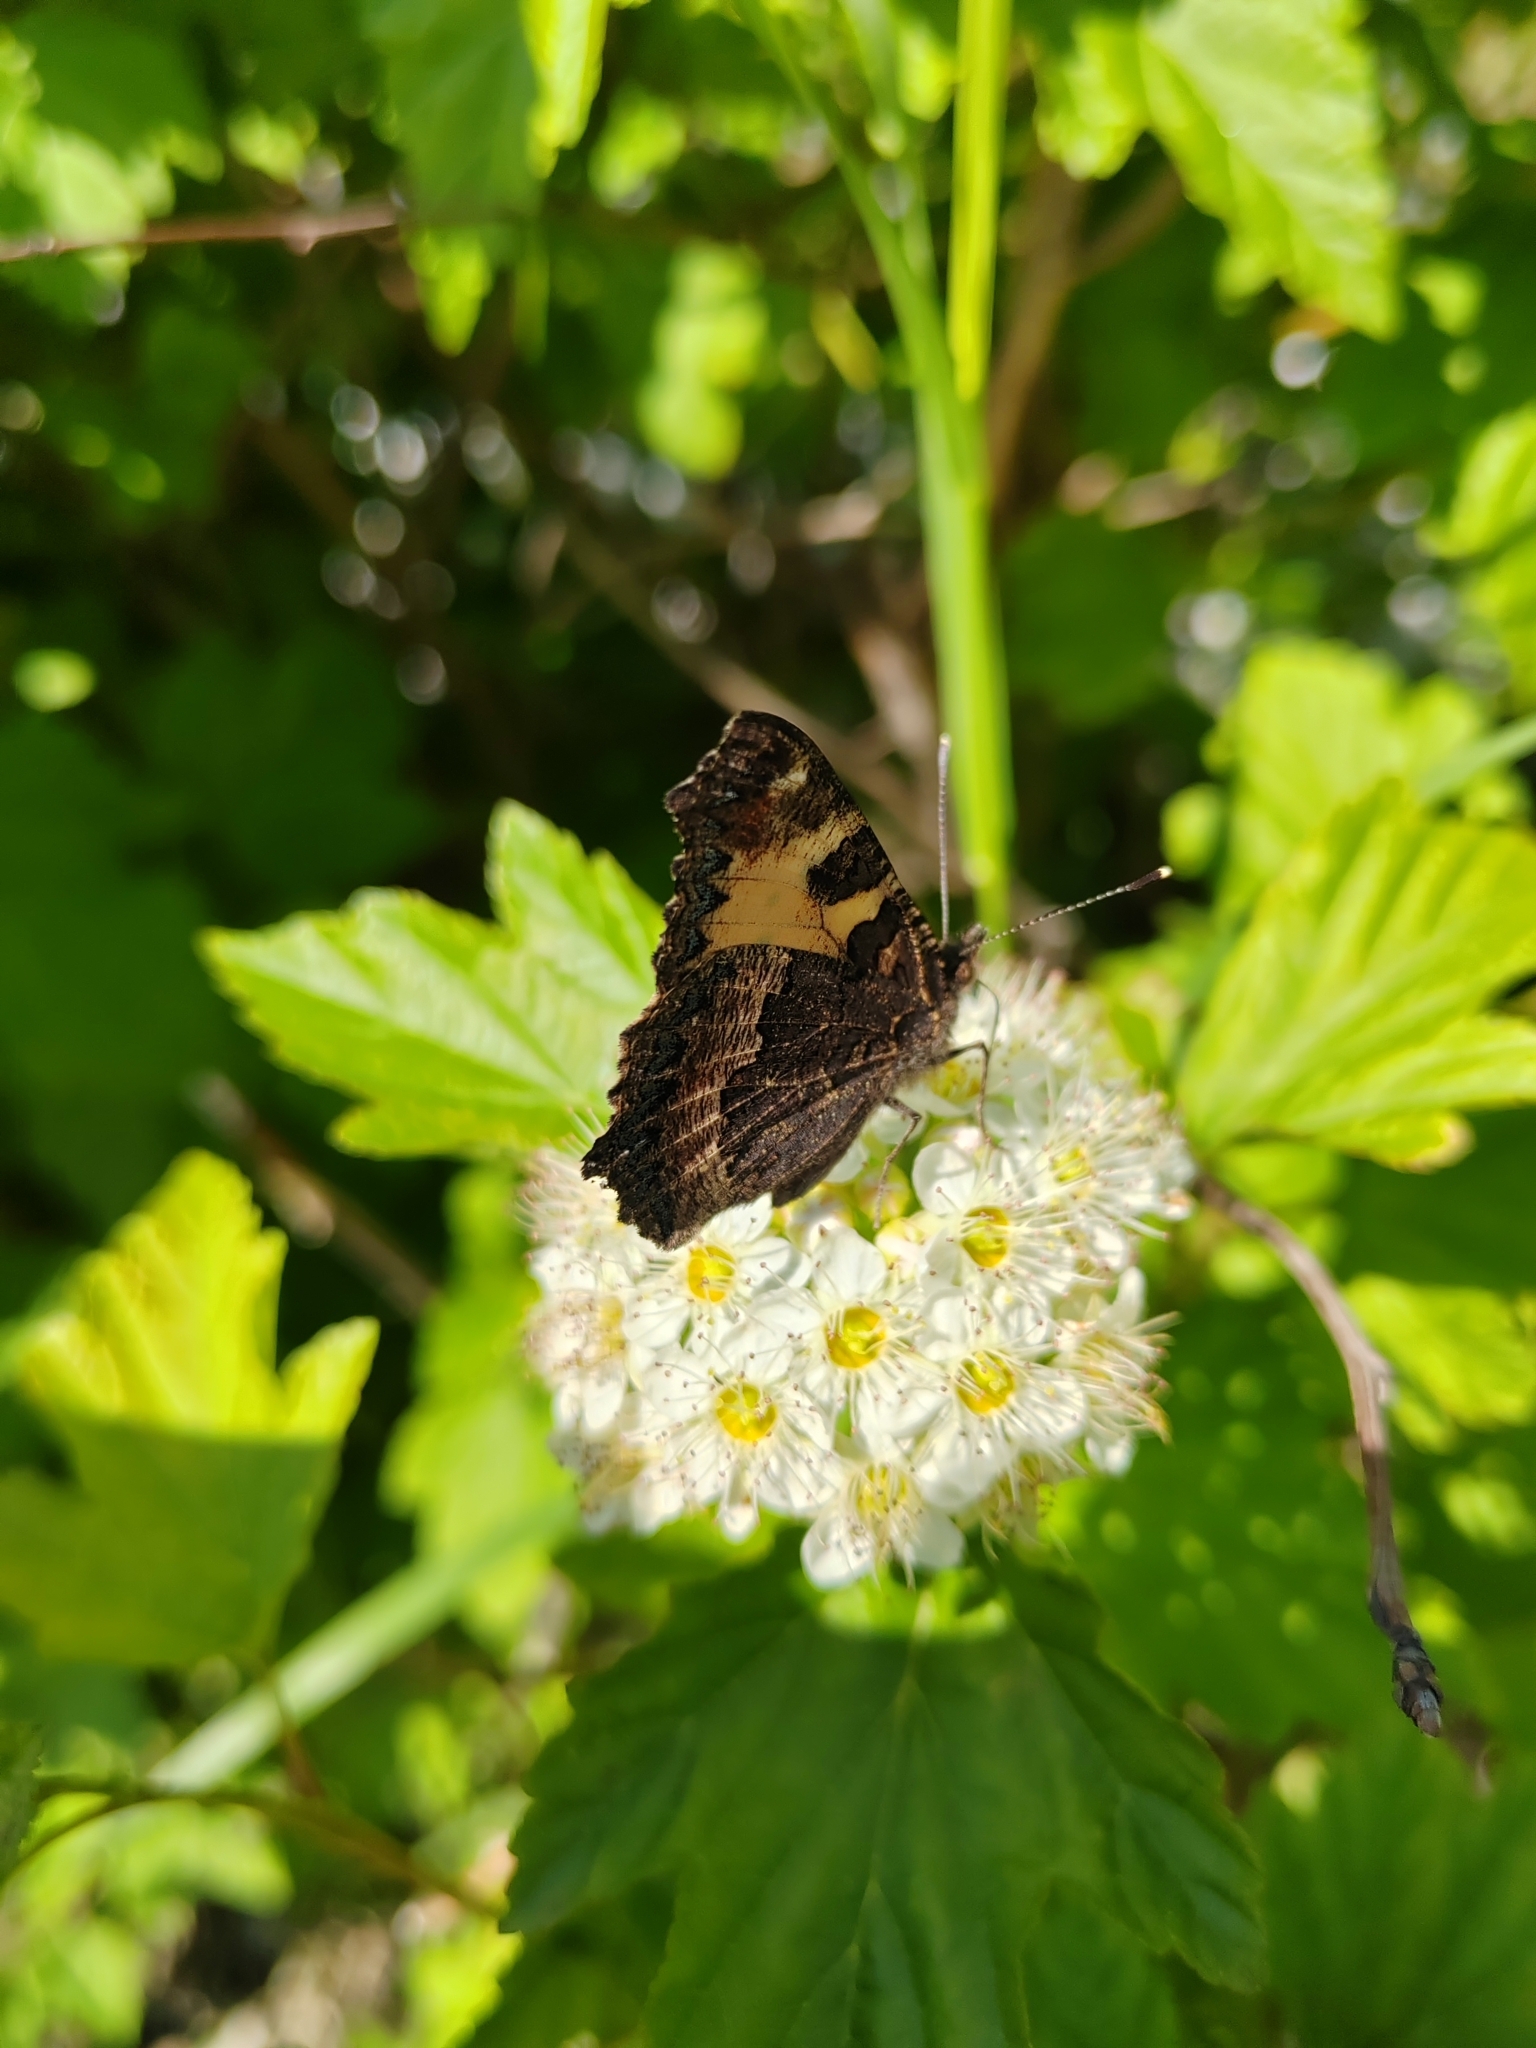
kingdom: Animalia
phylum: Arthropoda
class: Insecta
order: Lepidoptera
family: Nymphalidae
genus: Aglais
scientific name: Aglais urticae
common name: Small tortoiseshell
